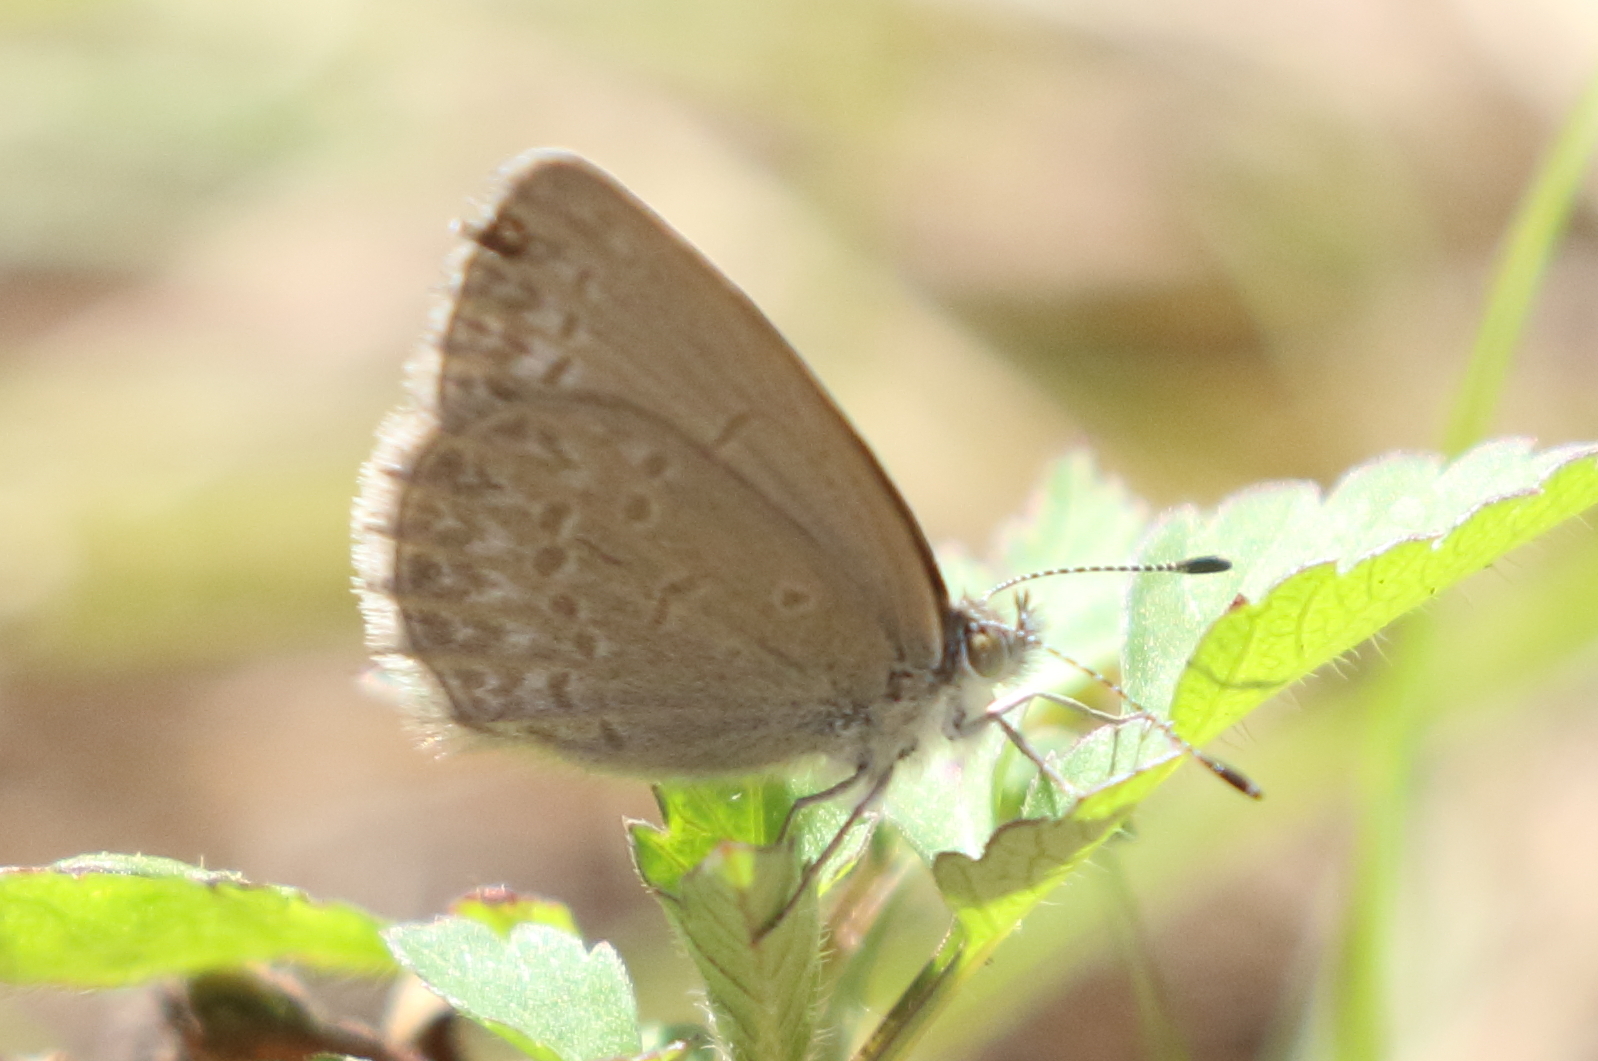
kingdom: Animalia
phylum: Arthropoda
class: Insecta
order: Lepidoptera
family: Lycaenidae
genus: Zizina
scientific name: Zizina labradus
